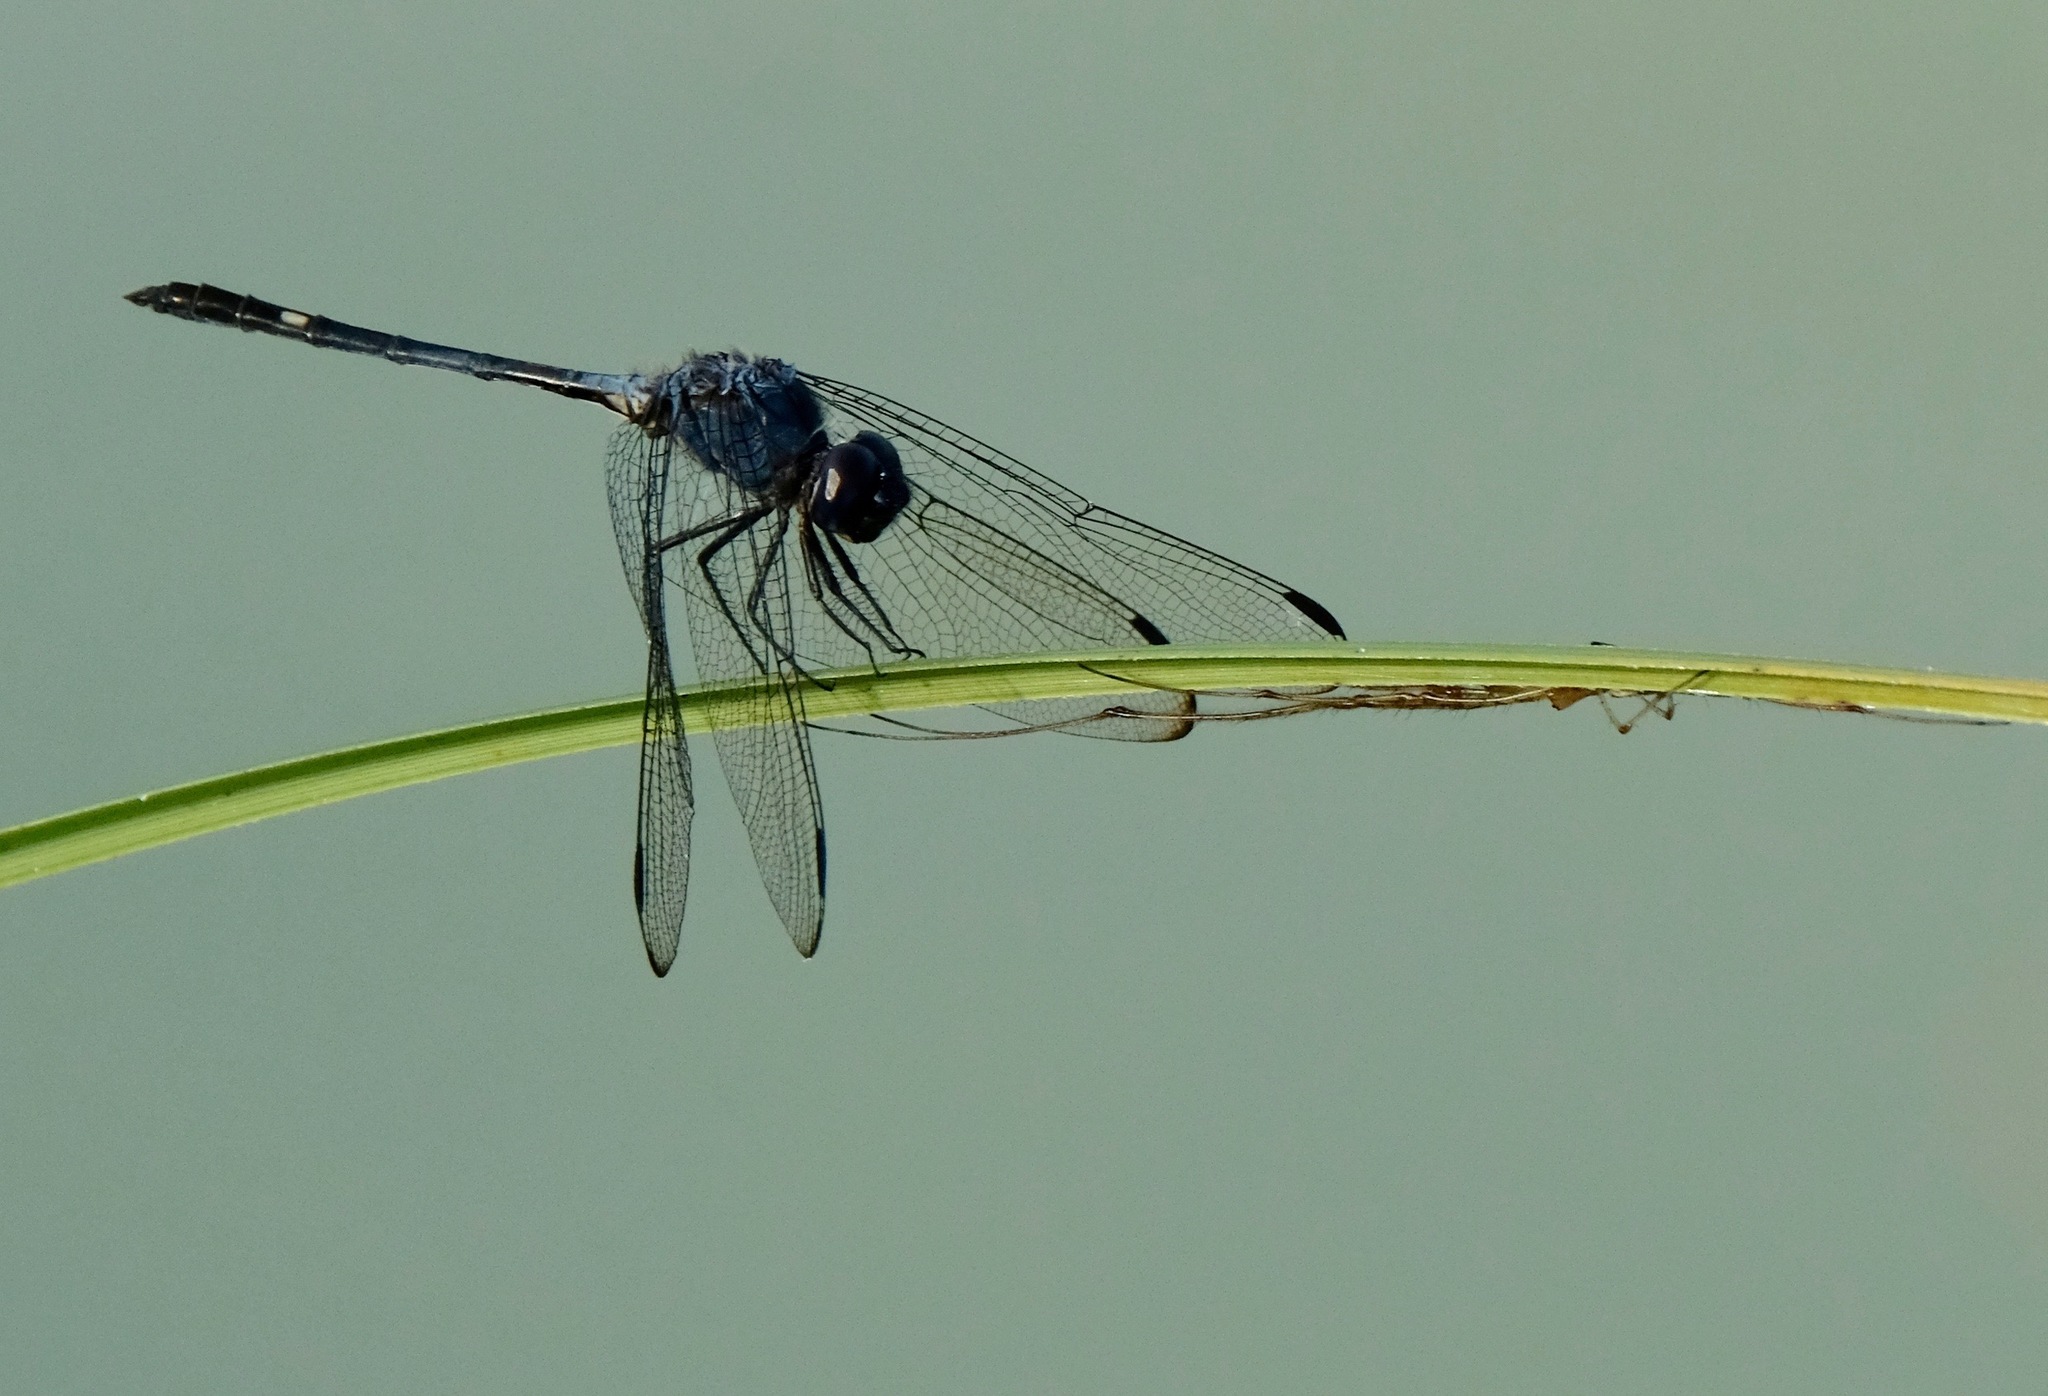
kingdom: Animalia
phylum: Arthropoda
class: Insecta
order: Odonata
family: Libellulidae
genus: Dythemis
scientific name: Dythemis nigrescens
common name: Black setwing
